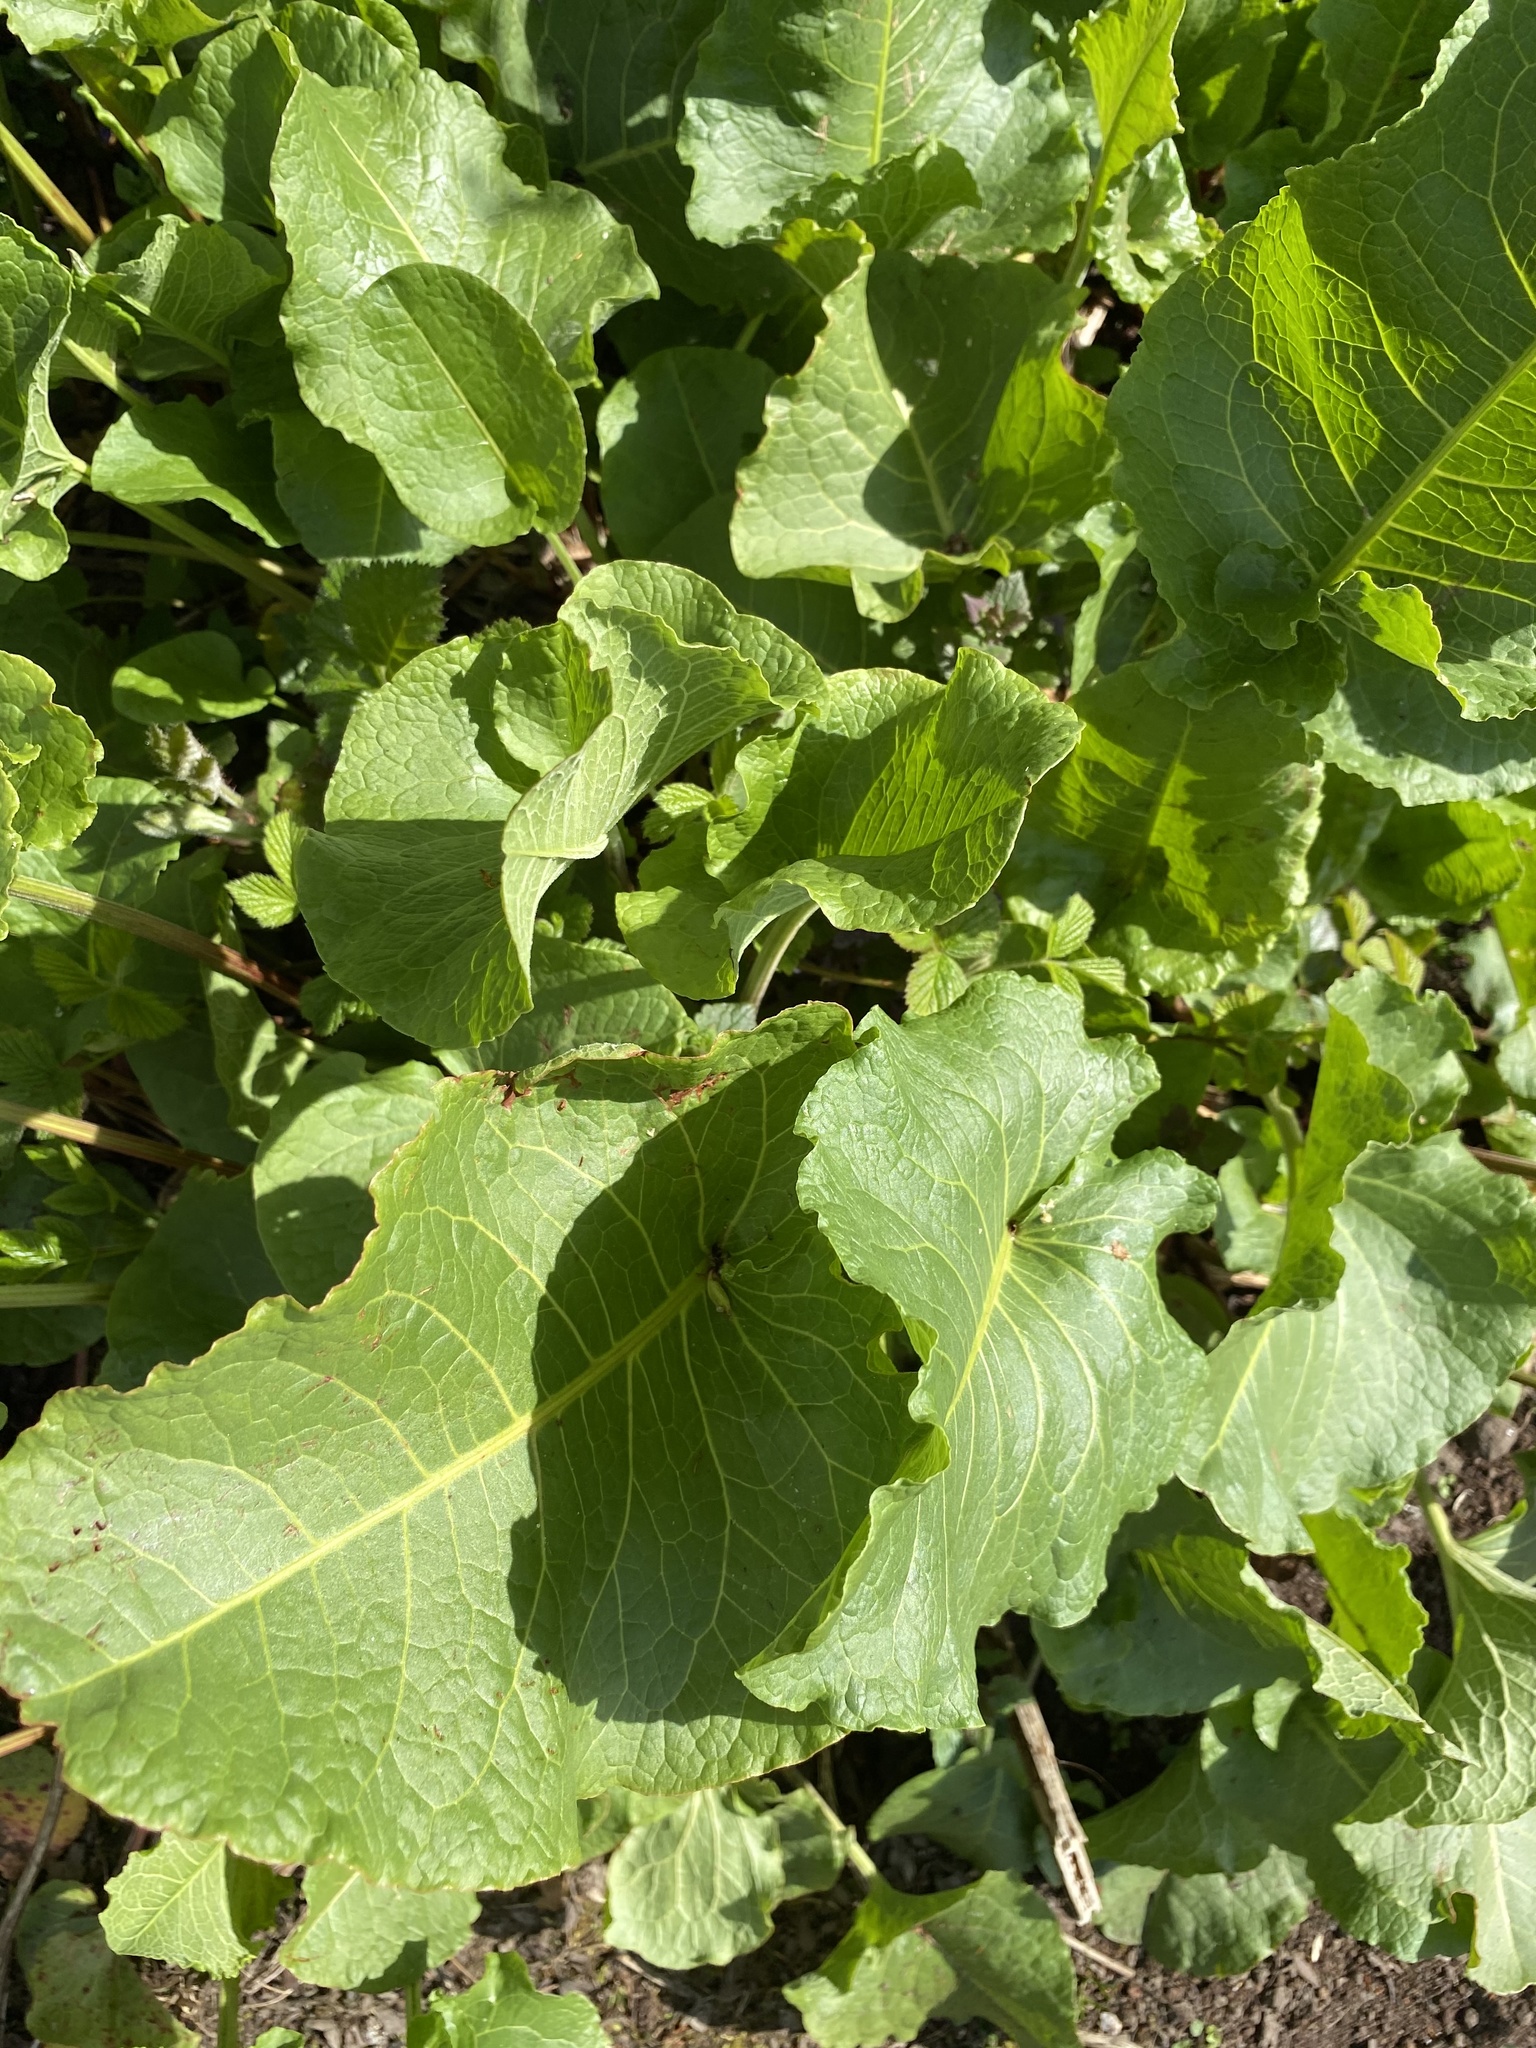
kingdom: Plantae
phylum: Tracheophyta
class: Magnoliopsida
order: Caryophyllales
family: Polygonaceae
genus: Rumex
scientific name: Rumex obtusifolius
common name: Bitter dock
